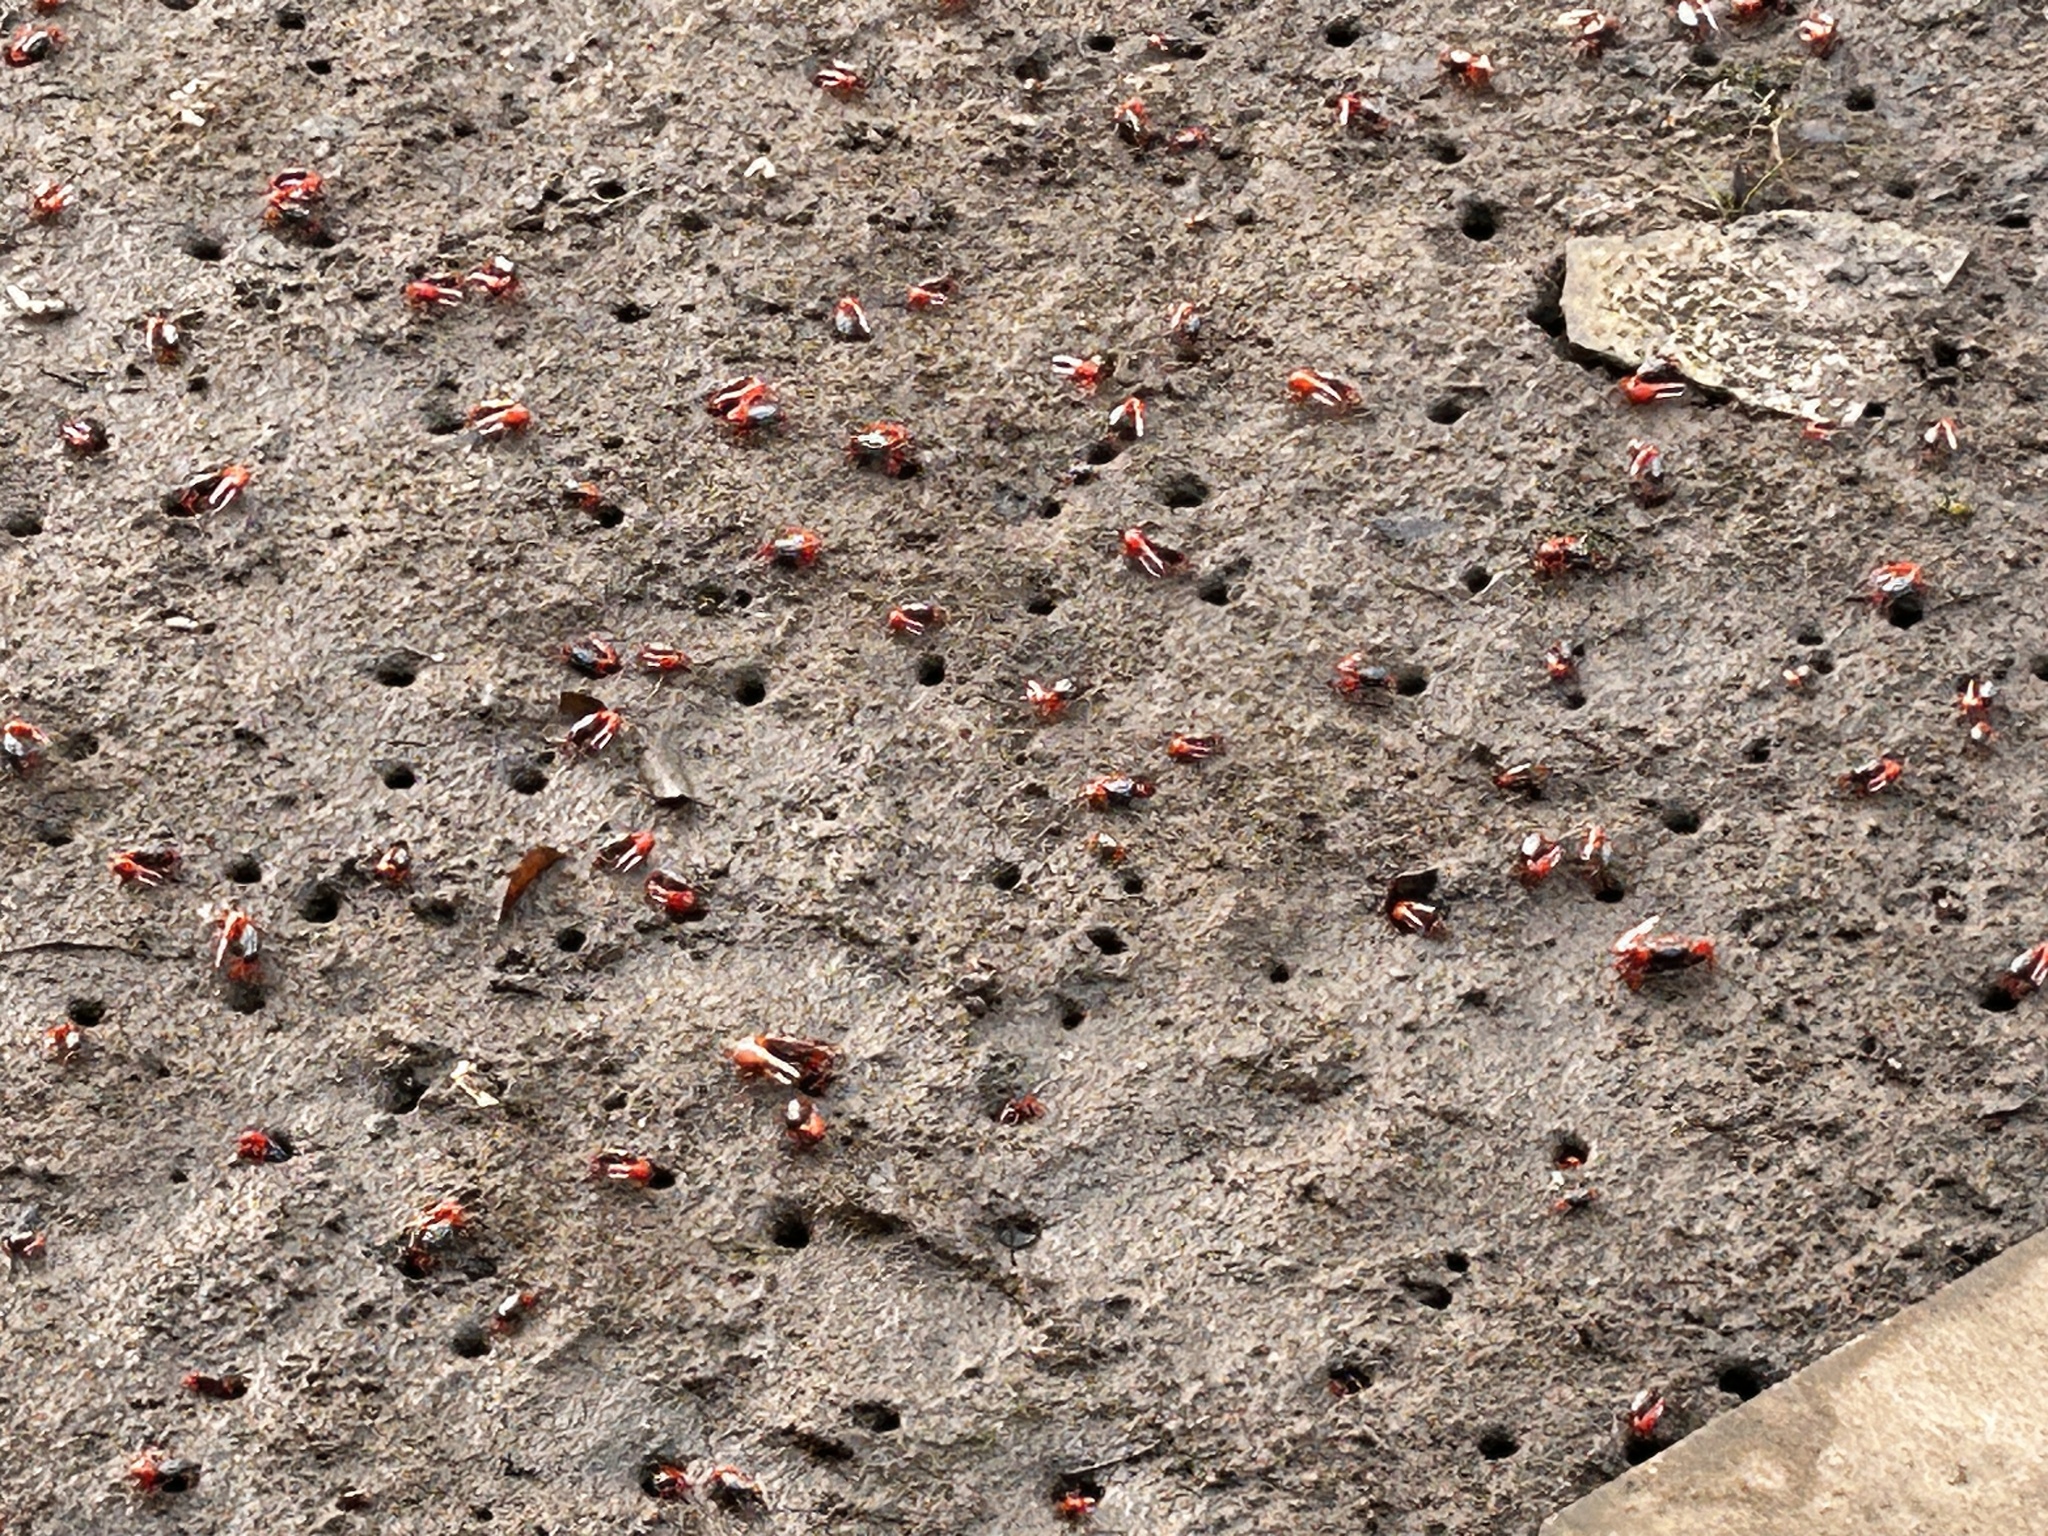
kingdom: Animalia
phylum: Arthropoda
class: Malacostraca
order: Decapoda
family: Ocypodidae
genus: Paraleptuca
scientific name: Paraleptuca splendida
